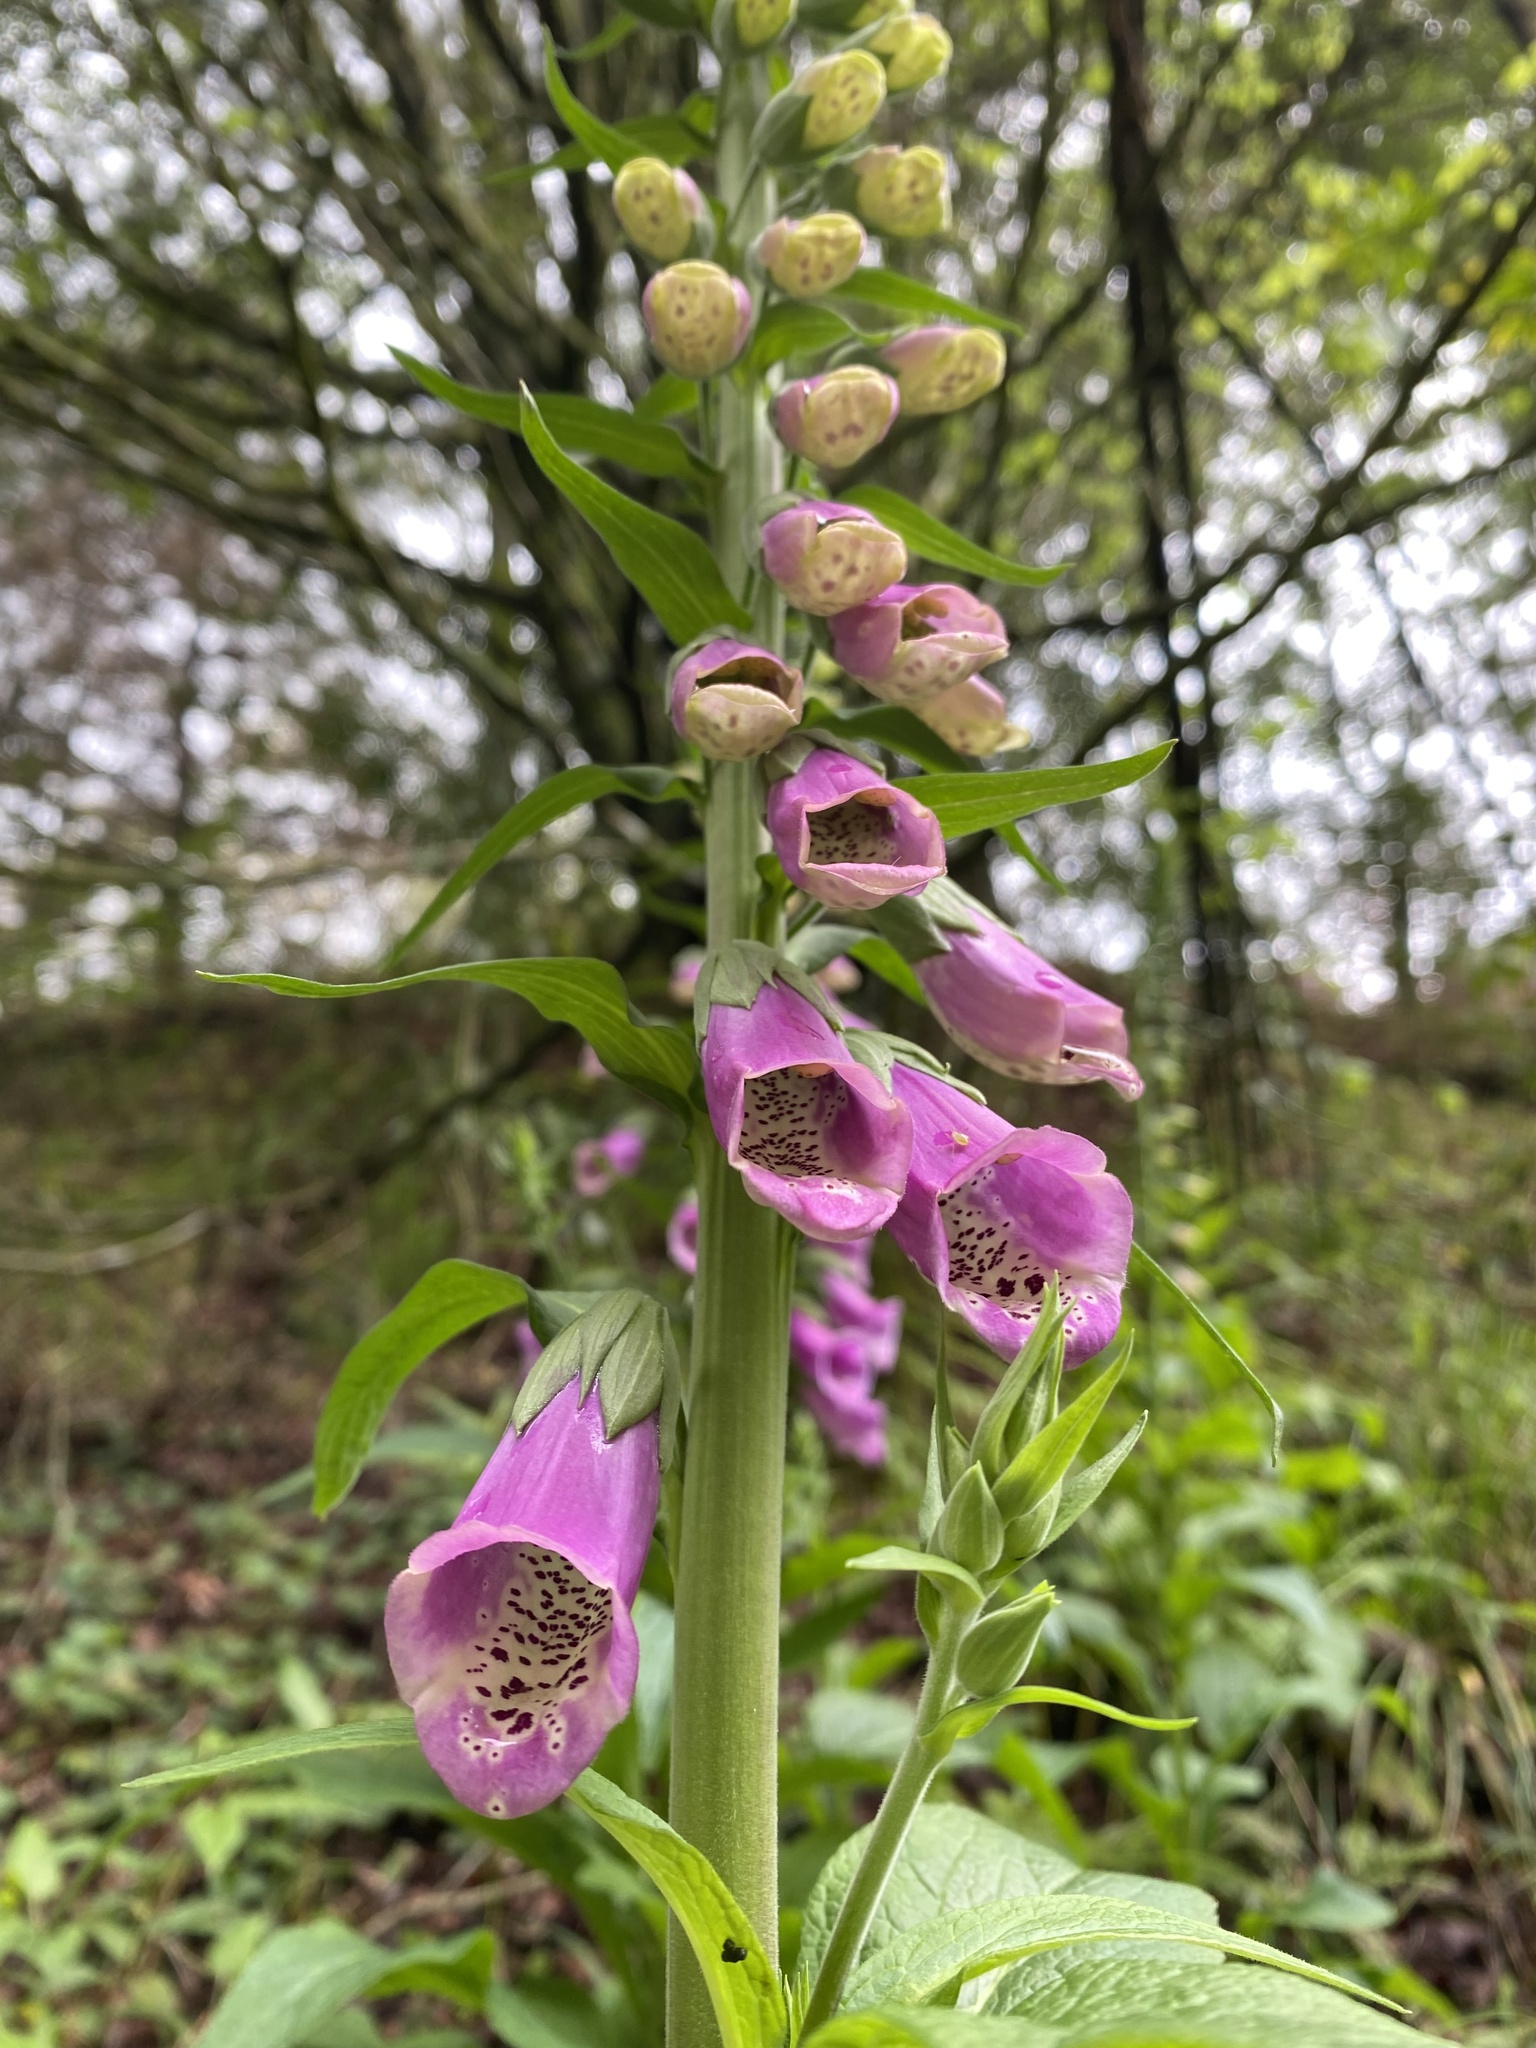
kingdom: Plantae
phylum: Tracheophyta
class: Magnoliopsida
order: Lamiales
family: Plantaginaceae
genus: Digitalis
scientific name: Digitalis purpurea
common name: Foxglove
